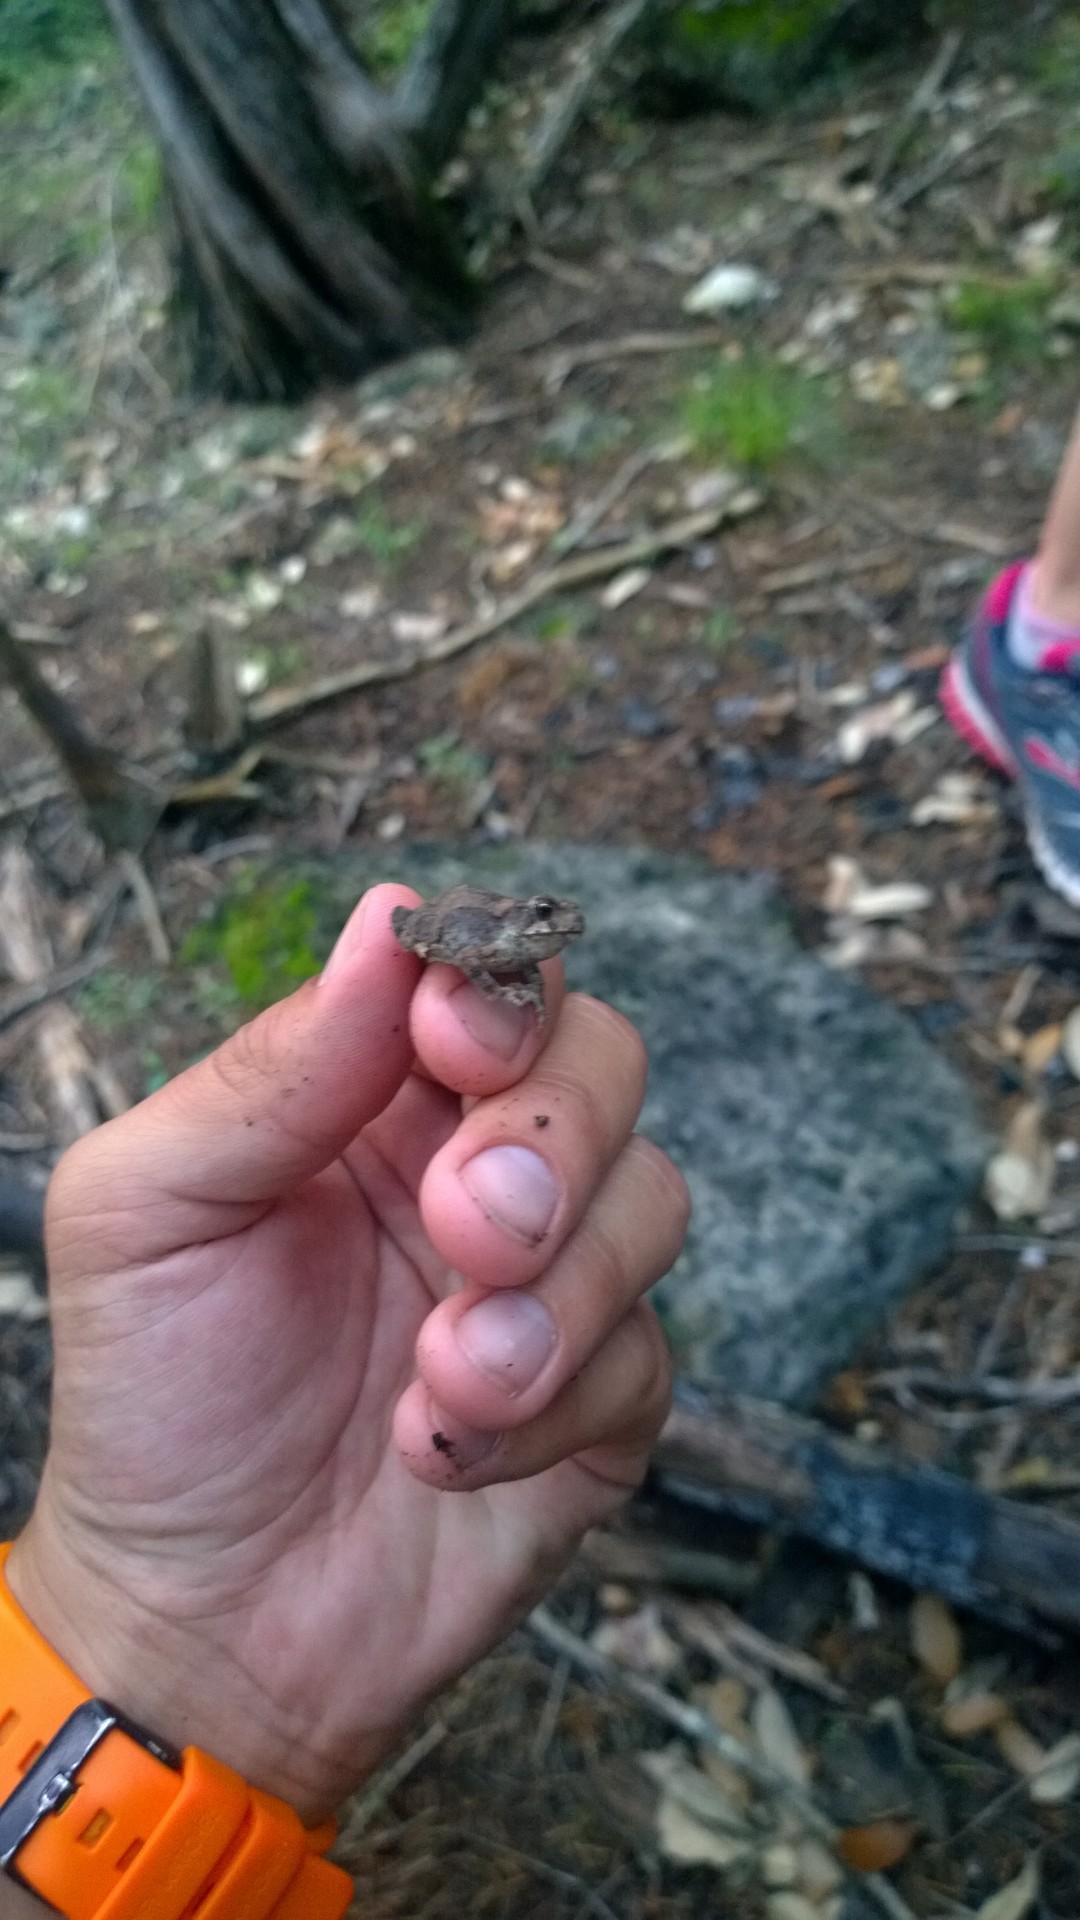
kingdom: Animalia
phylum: Chordata
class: Amphibia
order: Anura
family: Bufonidae
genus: Incilius
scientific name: Incilius nebulifer
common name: Gulf coast toad
